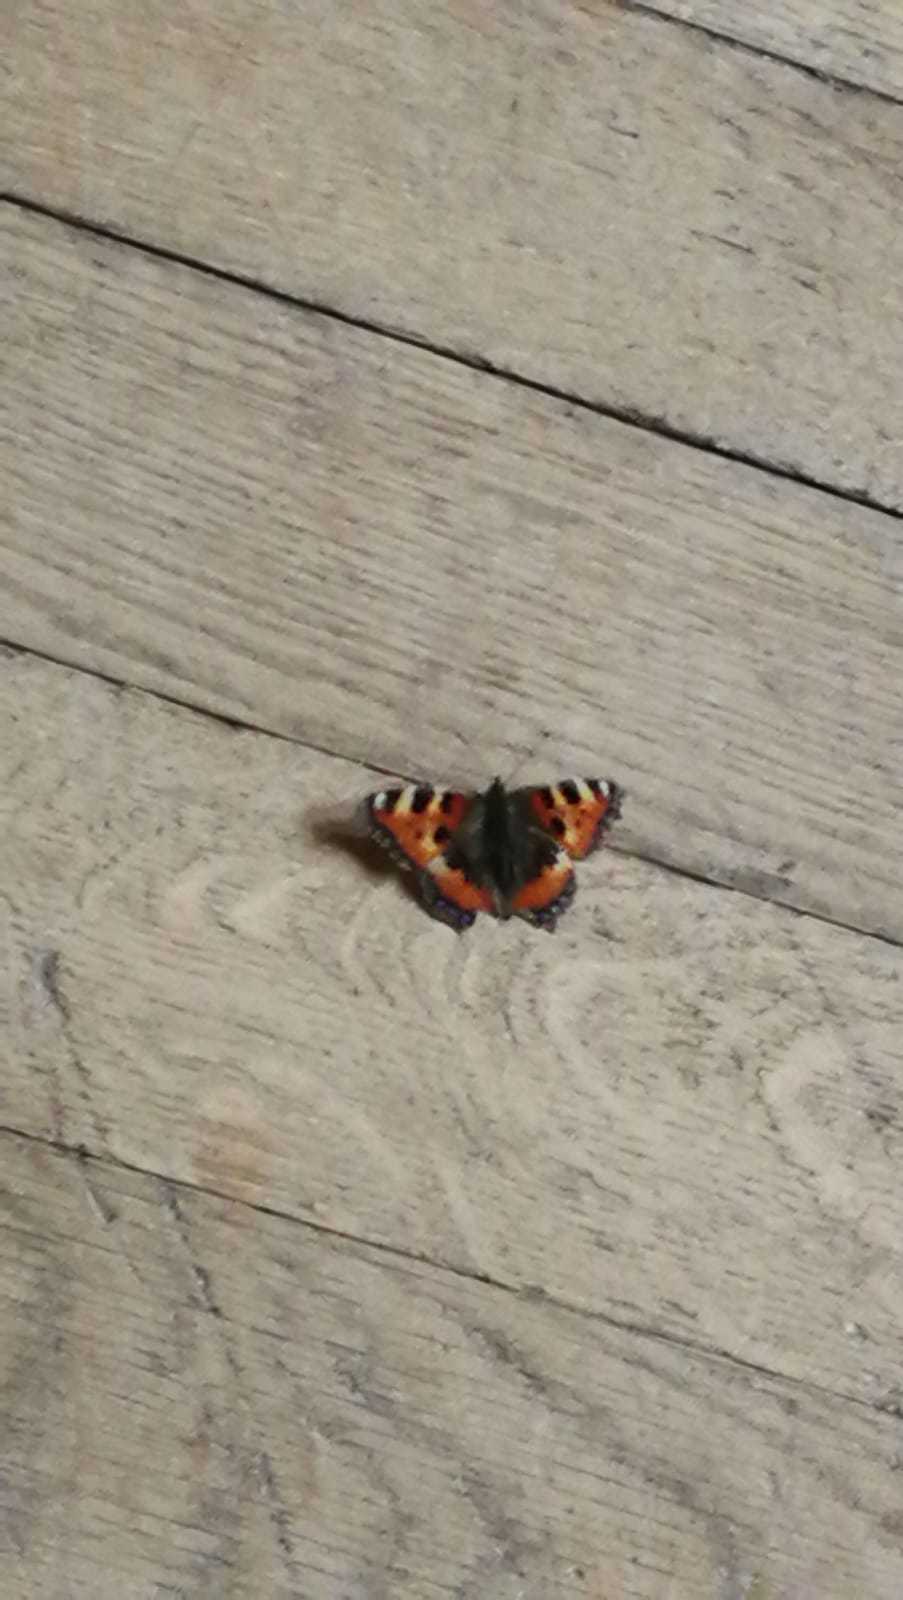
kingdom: Animalia
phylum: Arthropoda
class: Insecta
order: Lepidoptera
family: Nymphalidae
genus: Aglais
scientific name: Aglais urticae
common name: Small tortoiseshell
